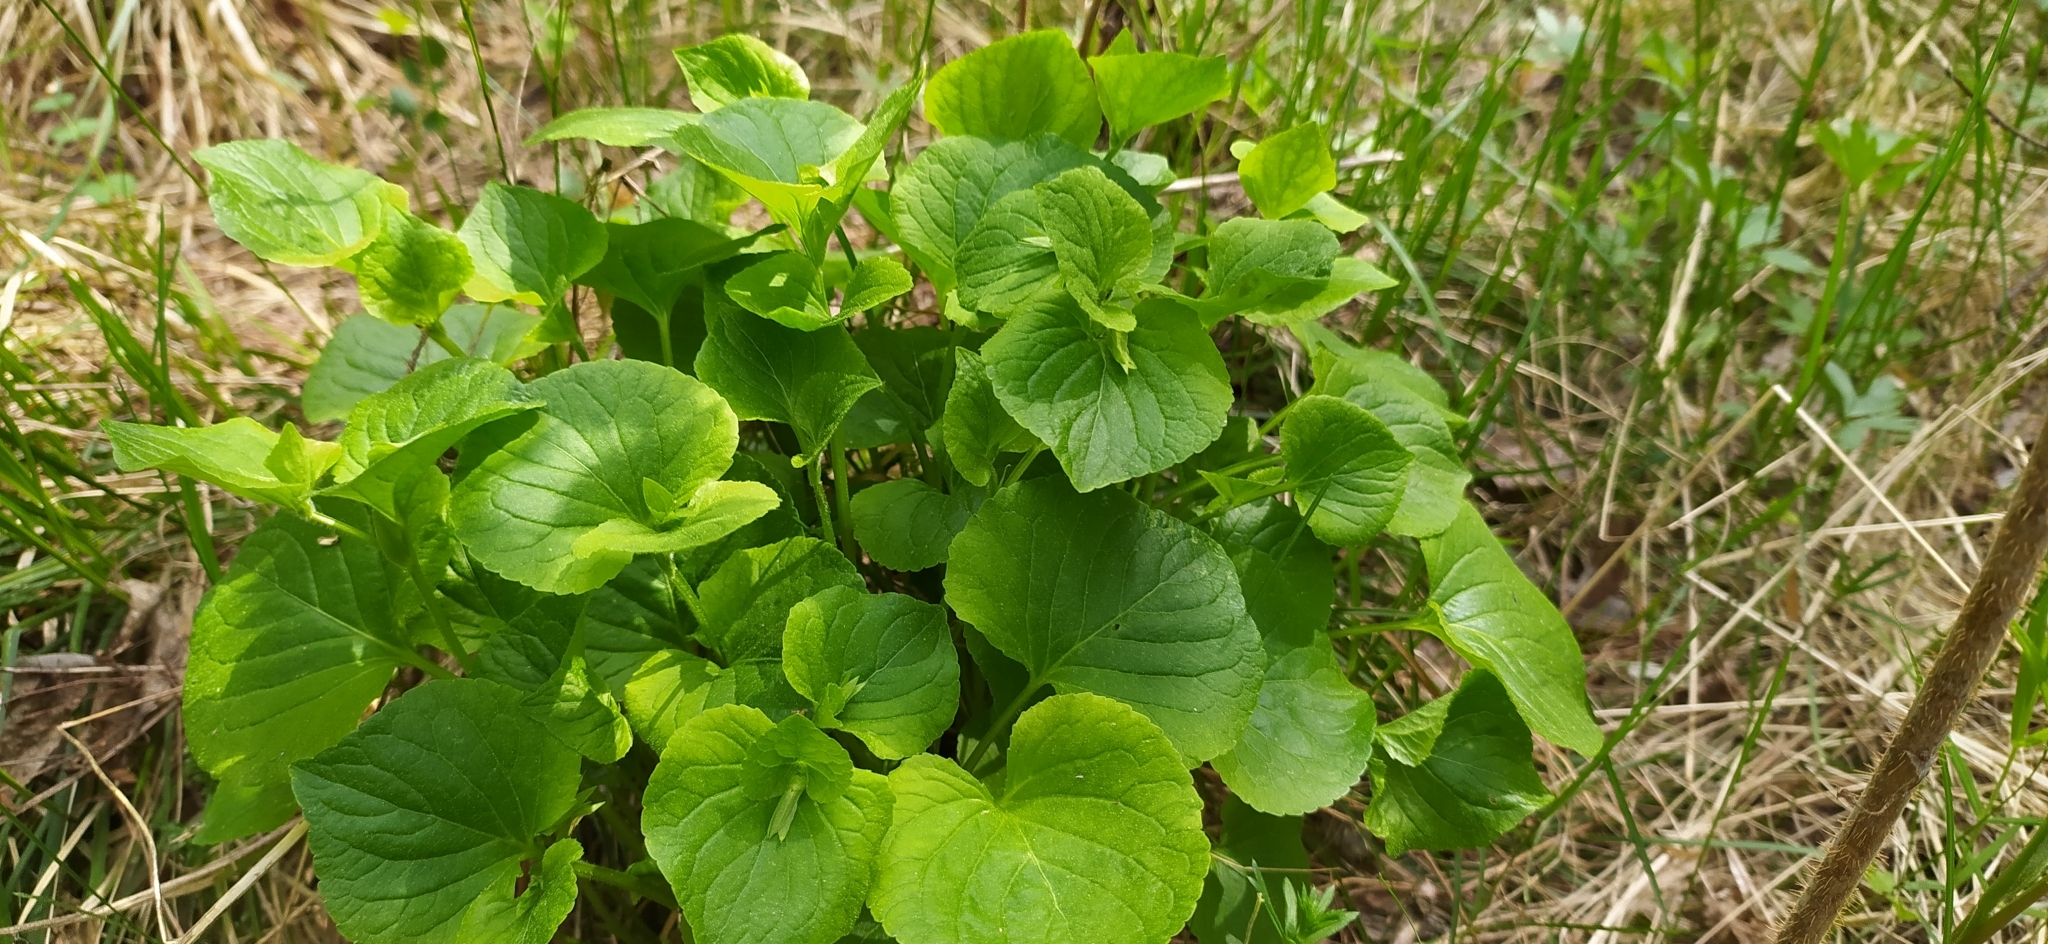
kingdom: Plantae
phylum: Tracheophyta
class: Magnoliopsida
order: Malpighiales
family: Violaceae
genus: Viola
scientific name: Viola mirabilis
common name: Wonder violet
